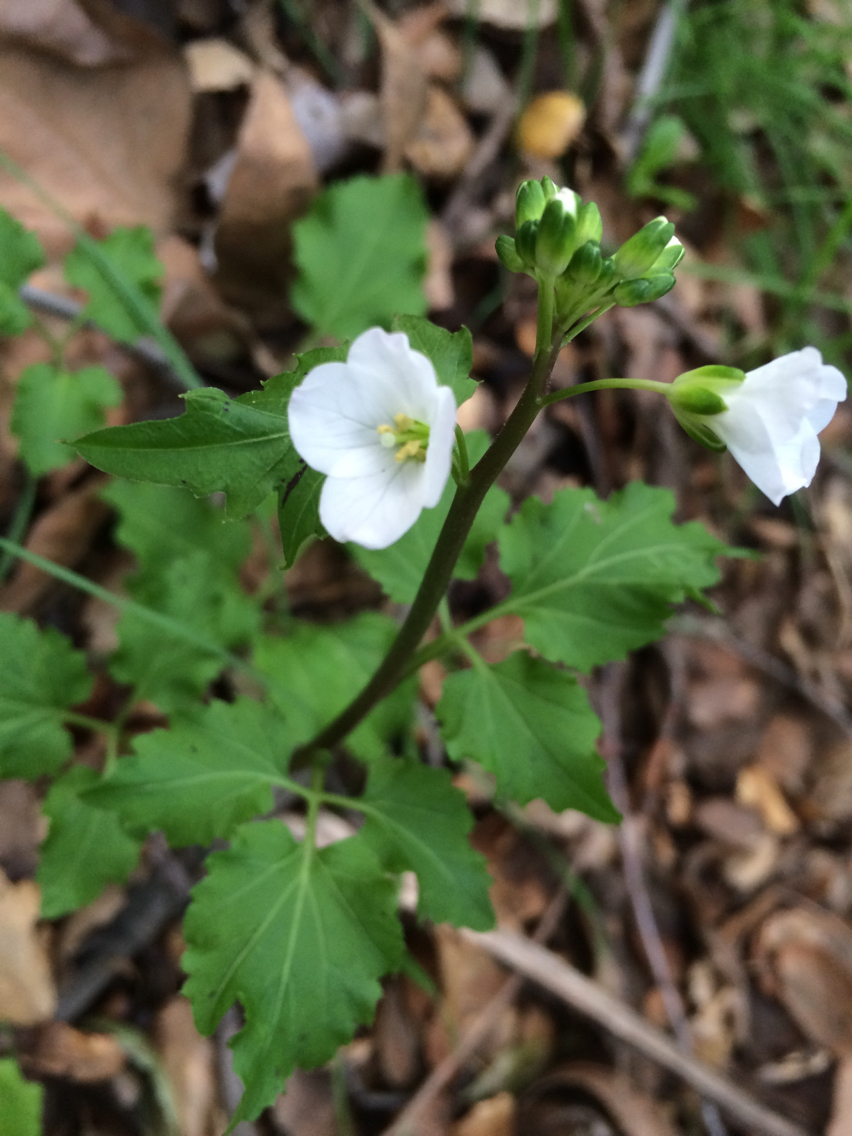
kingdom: Plantae
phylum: Tracheophyta
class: Magnoliopsida
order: Brassicales
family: Brassicaceae
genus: Cardamine
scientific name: Cardamine californica
